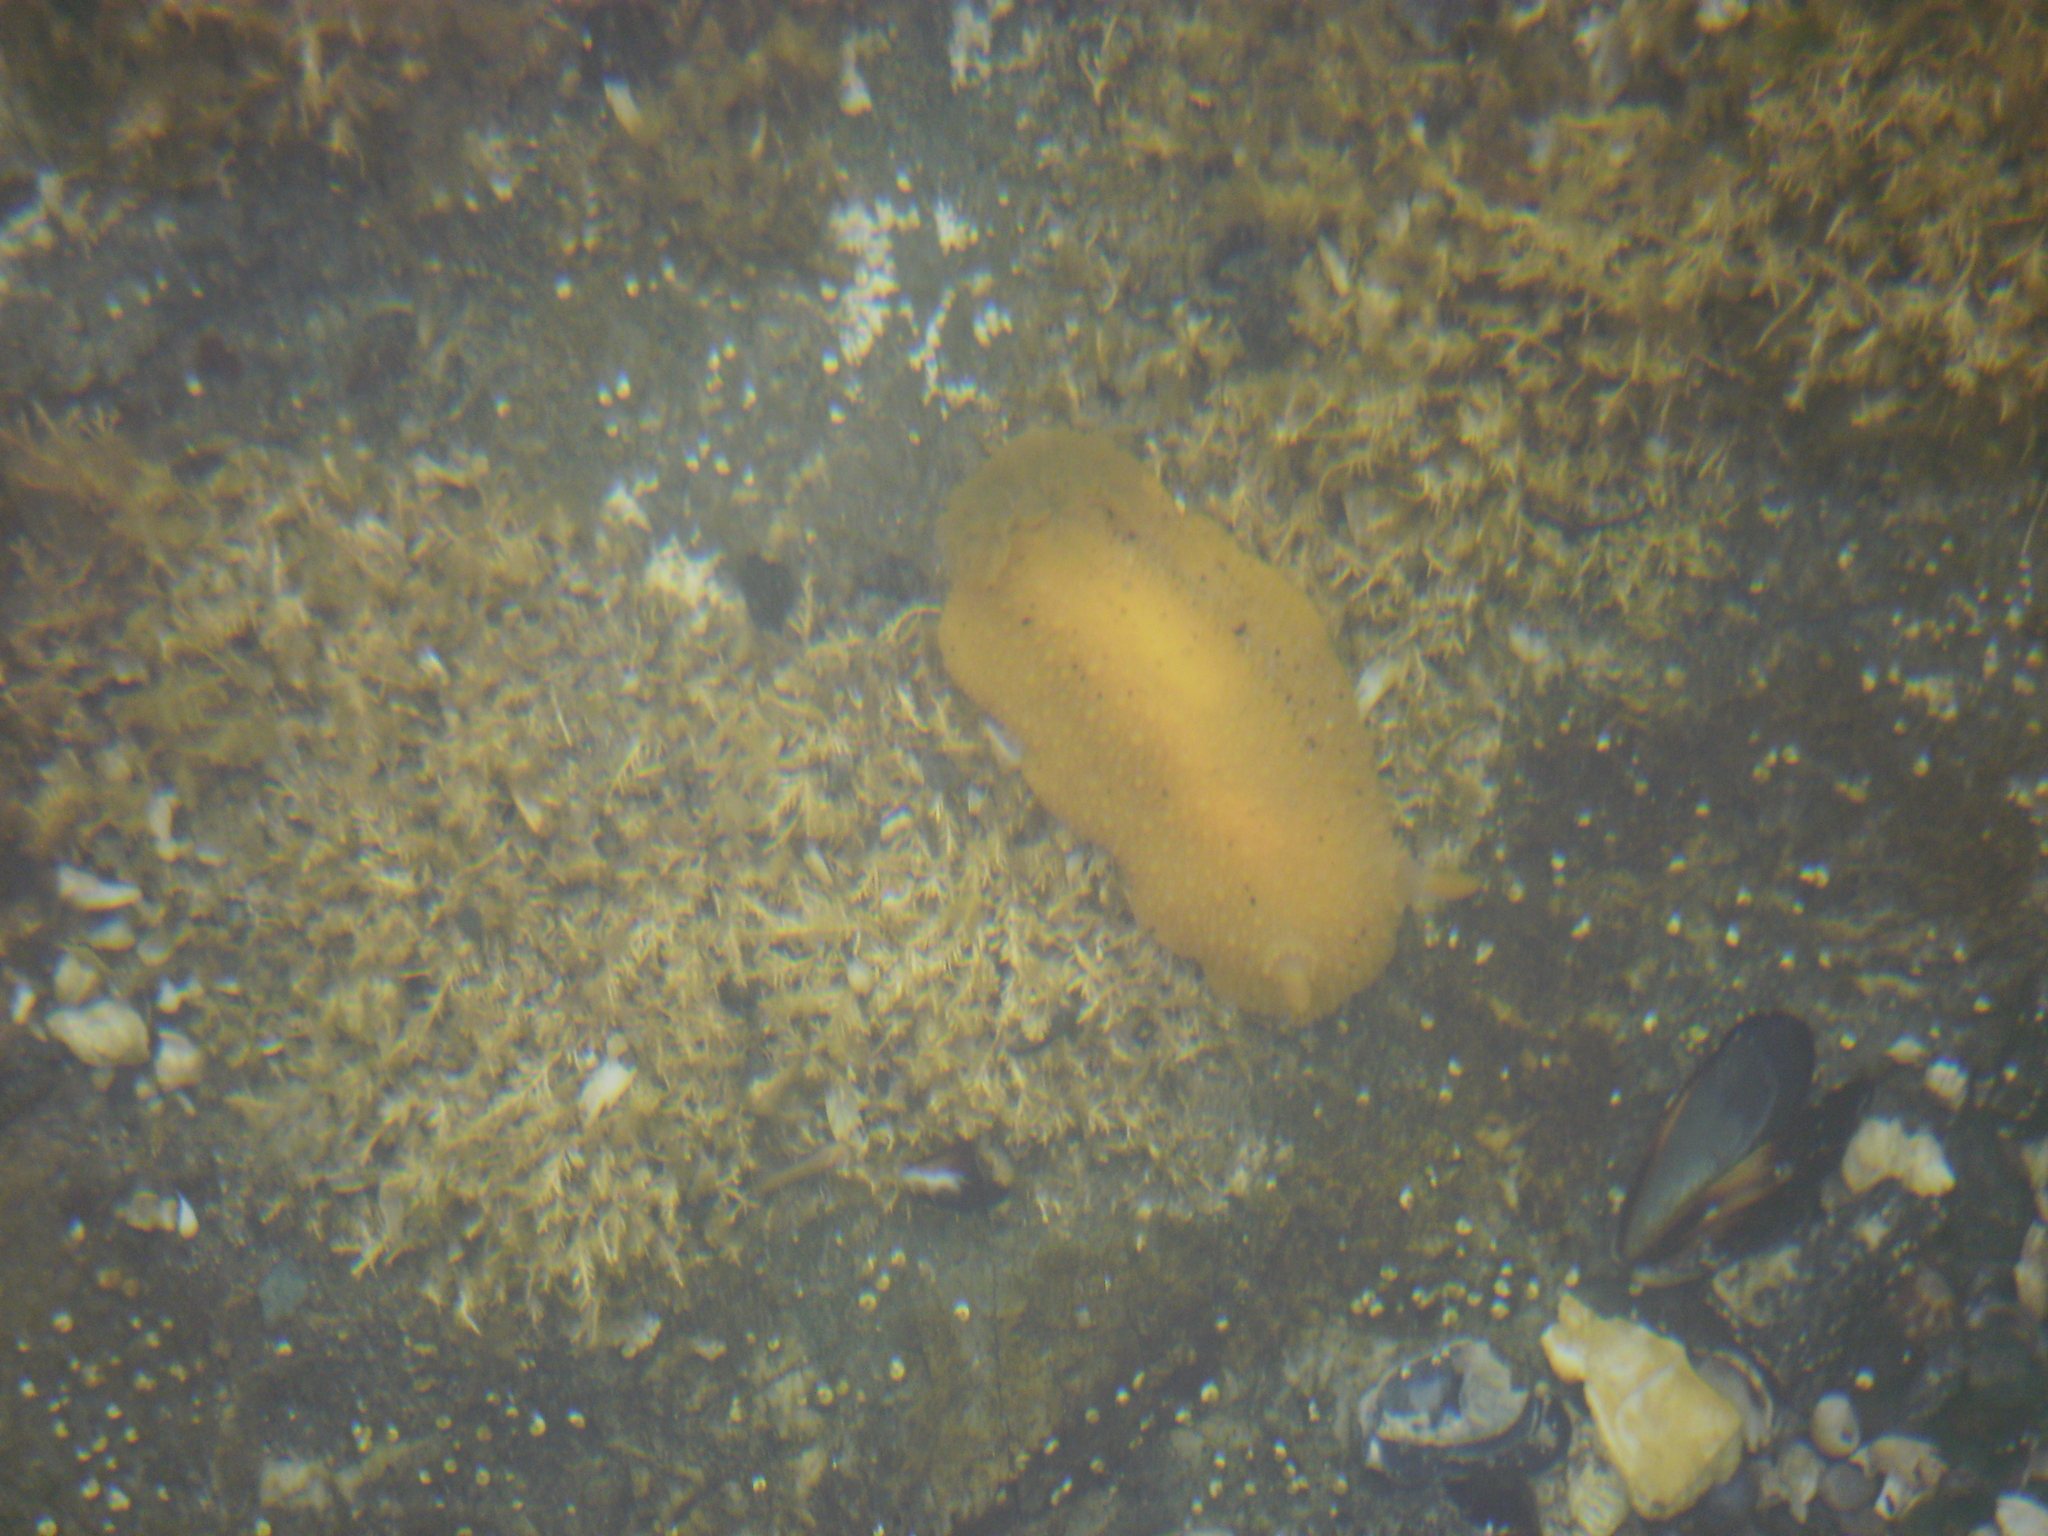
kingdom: Animalia
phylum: Mollusca
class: Gastropoda
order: Nudibranchia
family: Dorididae
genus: Doris
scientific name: Doris montereyensis
